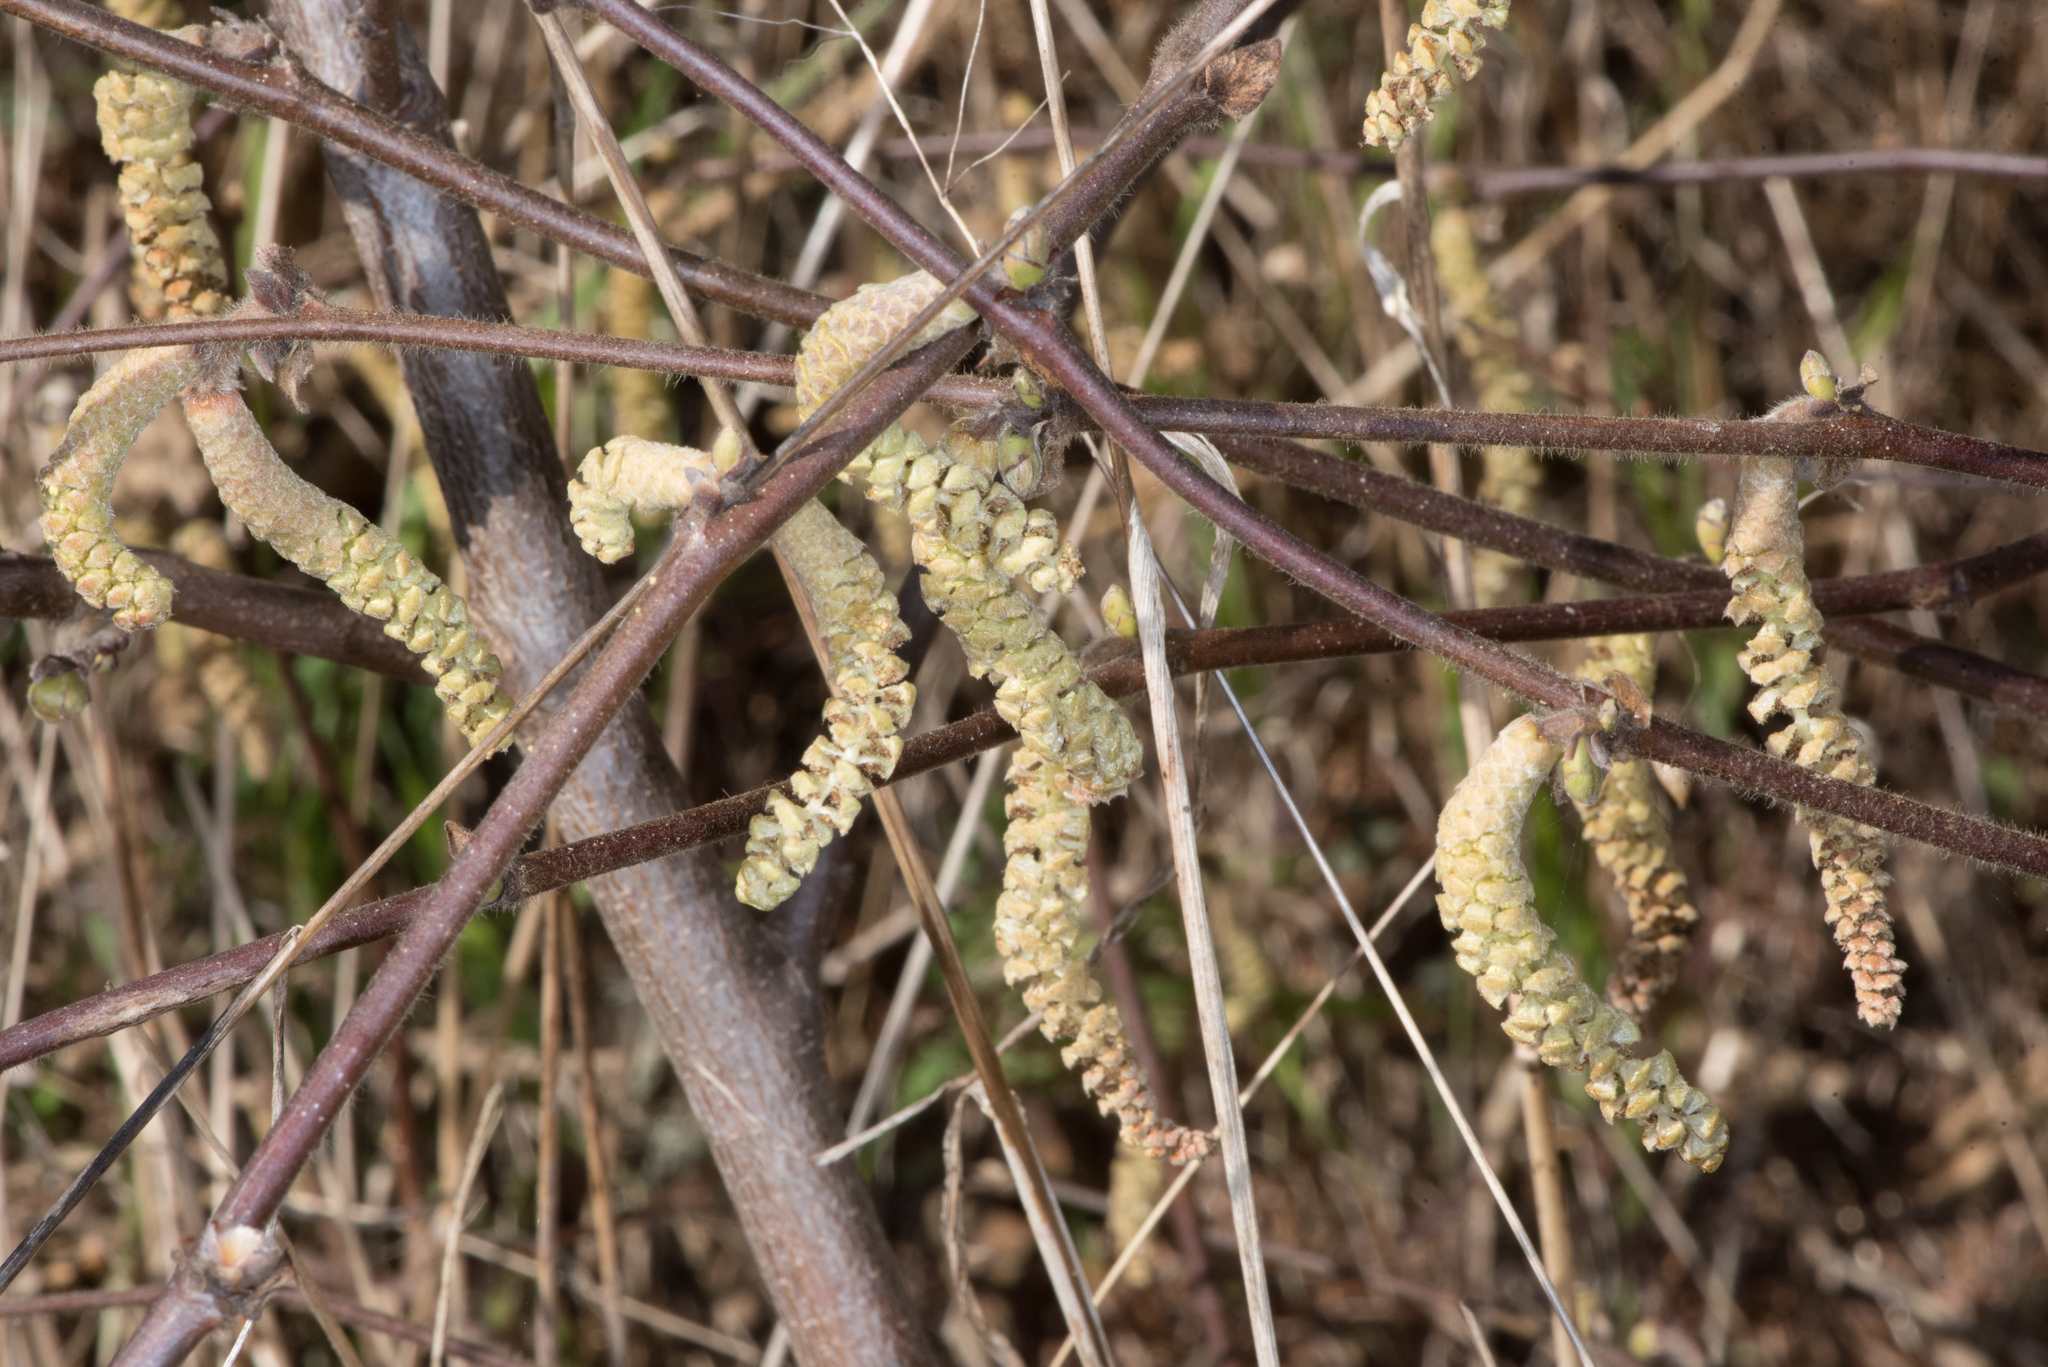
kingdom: Plantae
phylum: Tracheophyta
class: Magnoliopsida
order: Fagales
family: Betulaceae
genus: Corylus
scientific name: Corylus cornuta
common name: Beaked hazel
